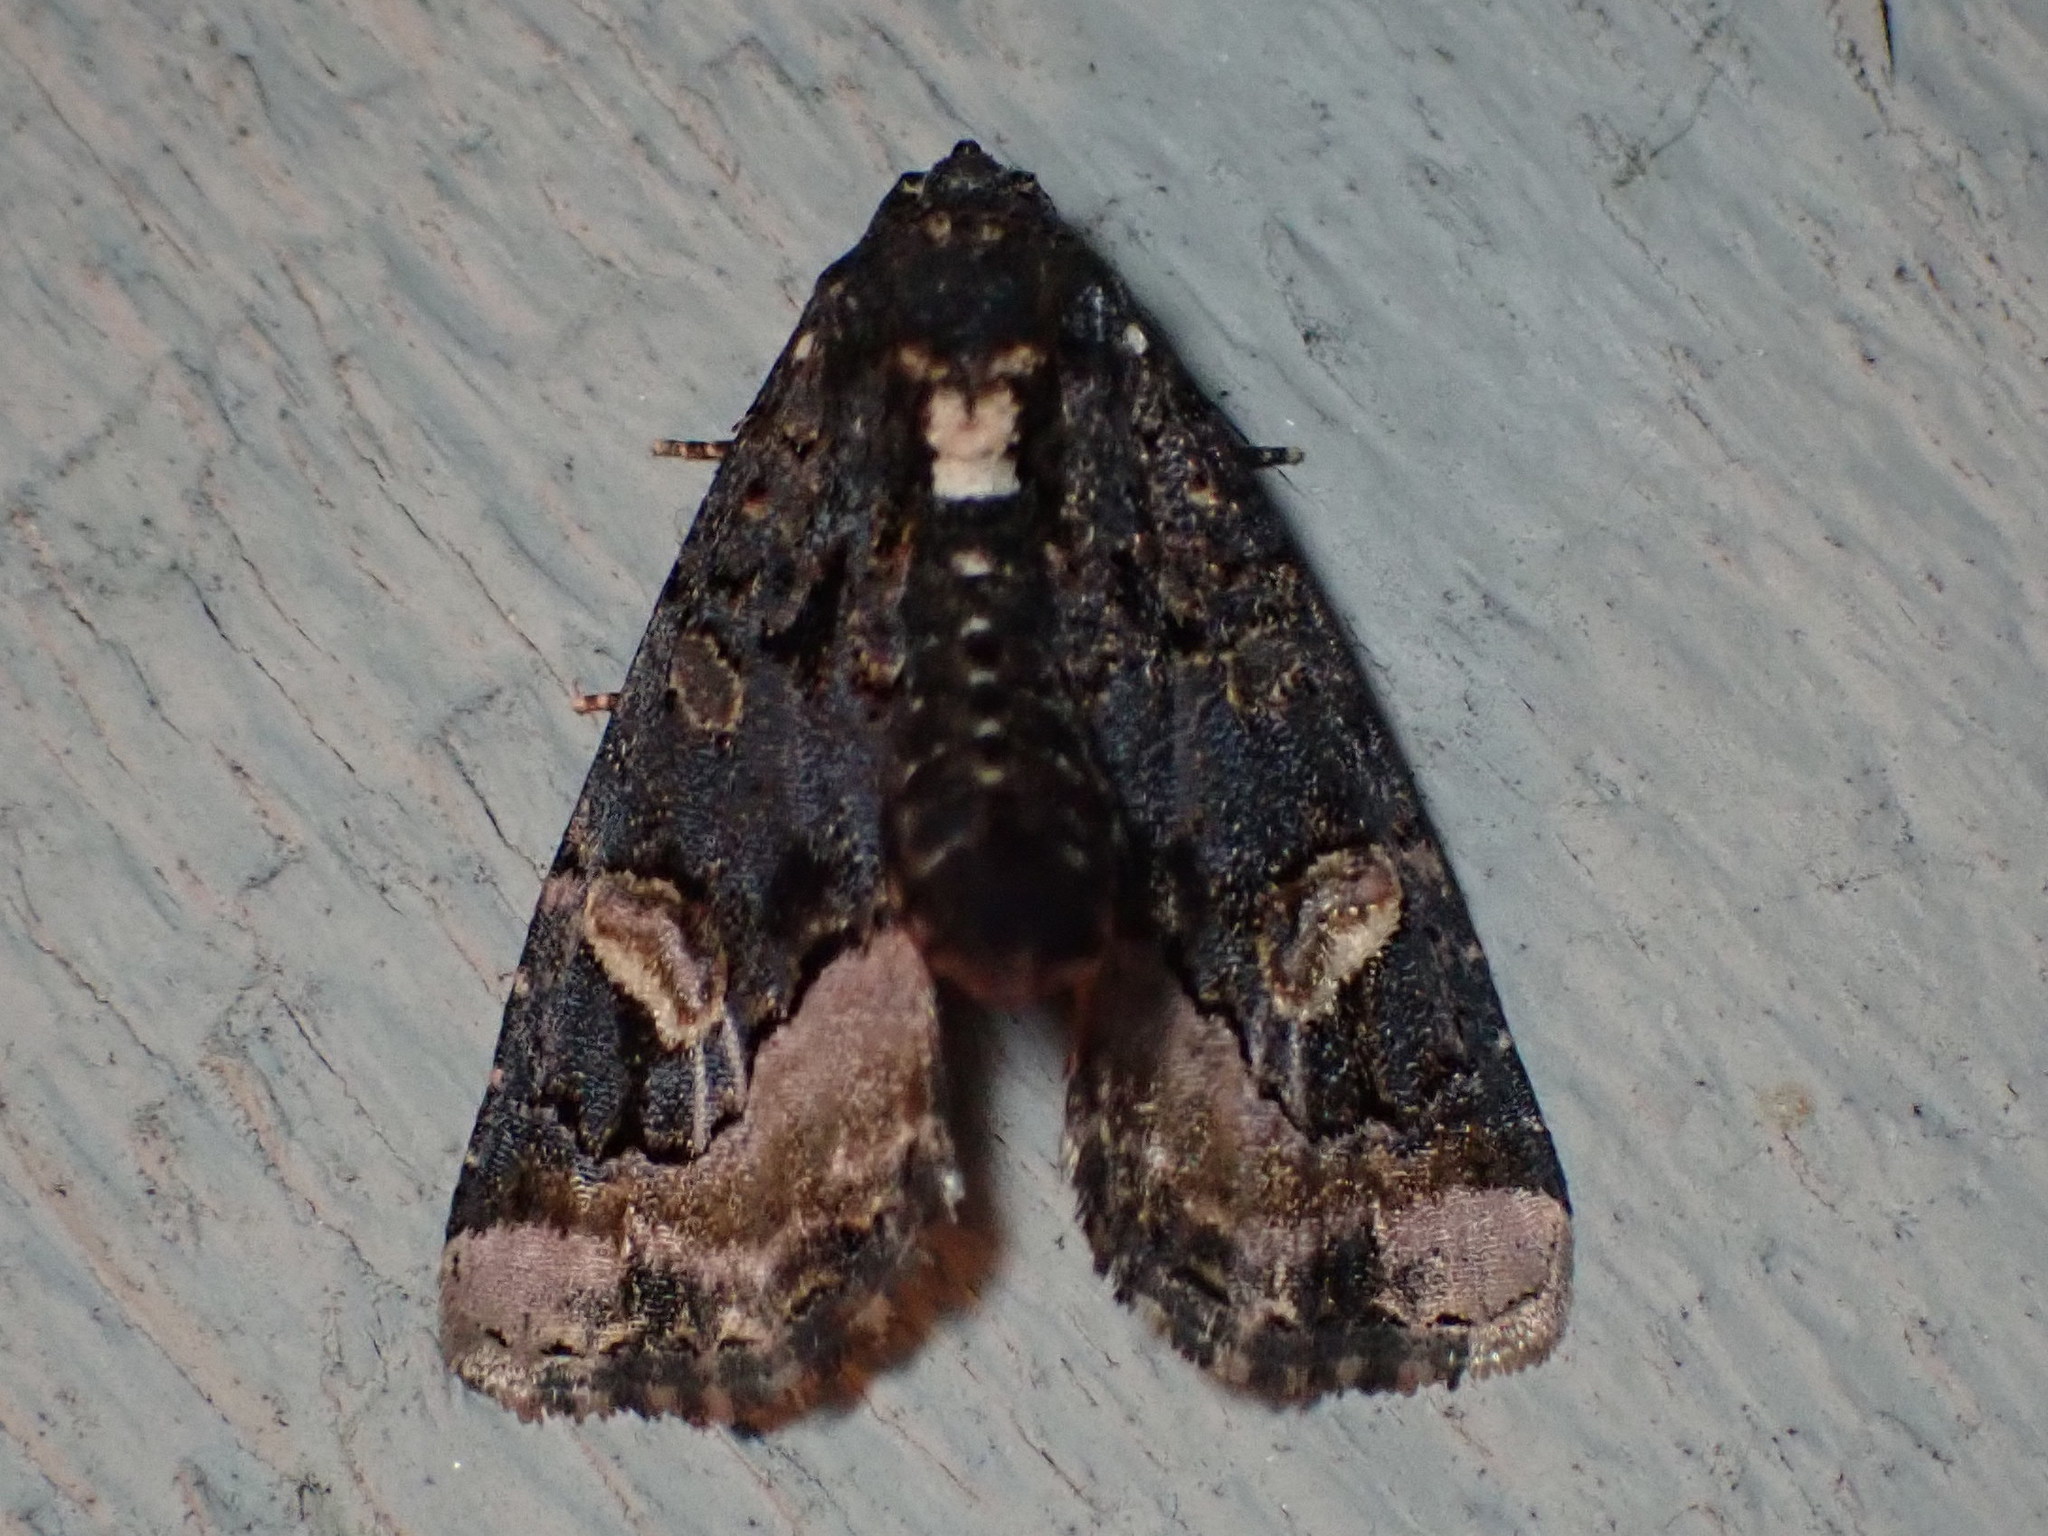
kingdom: Animalia
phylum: Arthropoda
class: Insecta
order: Lepidoptera
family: Noctuidae
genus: Homophoberia
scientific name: Homophoberia apicosa
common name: Black wedge-spot
